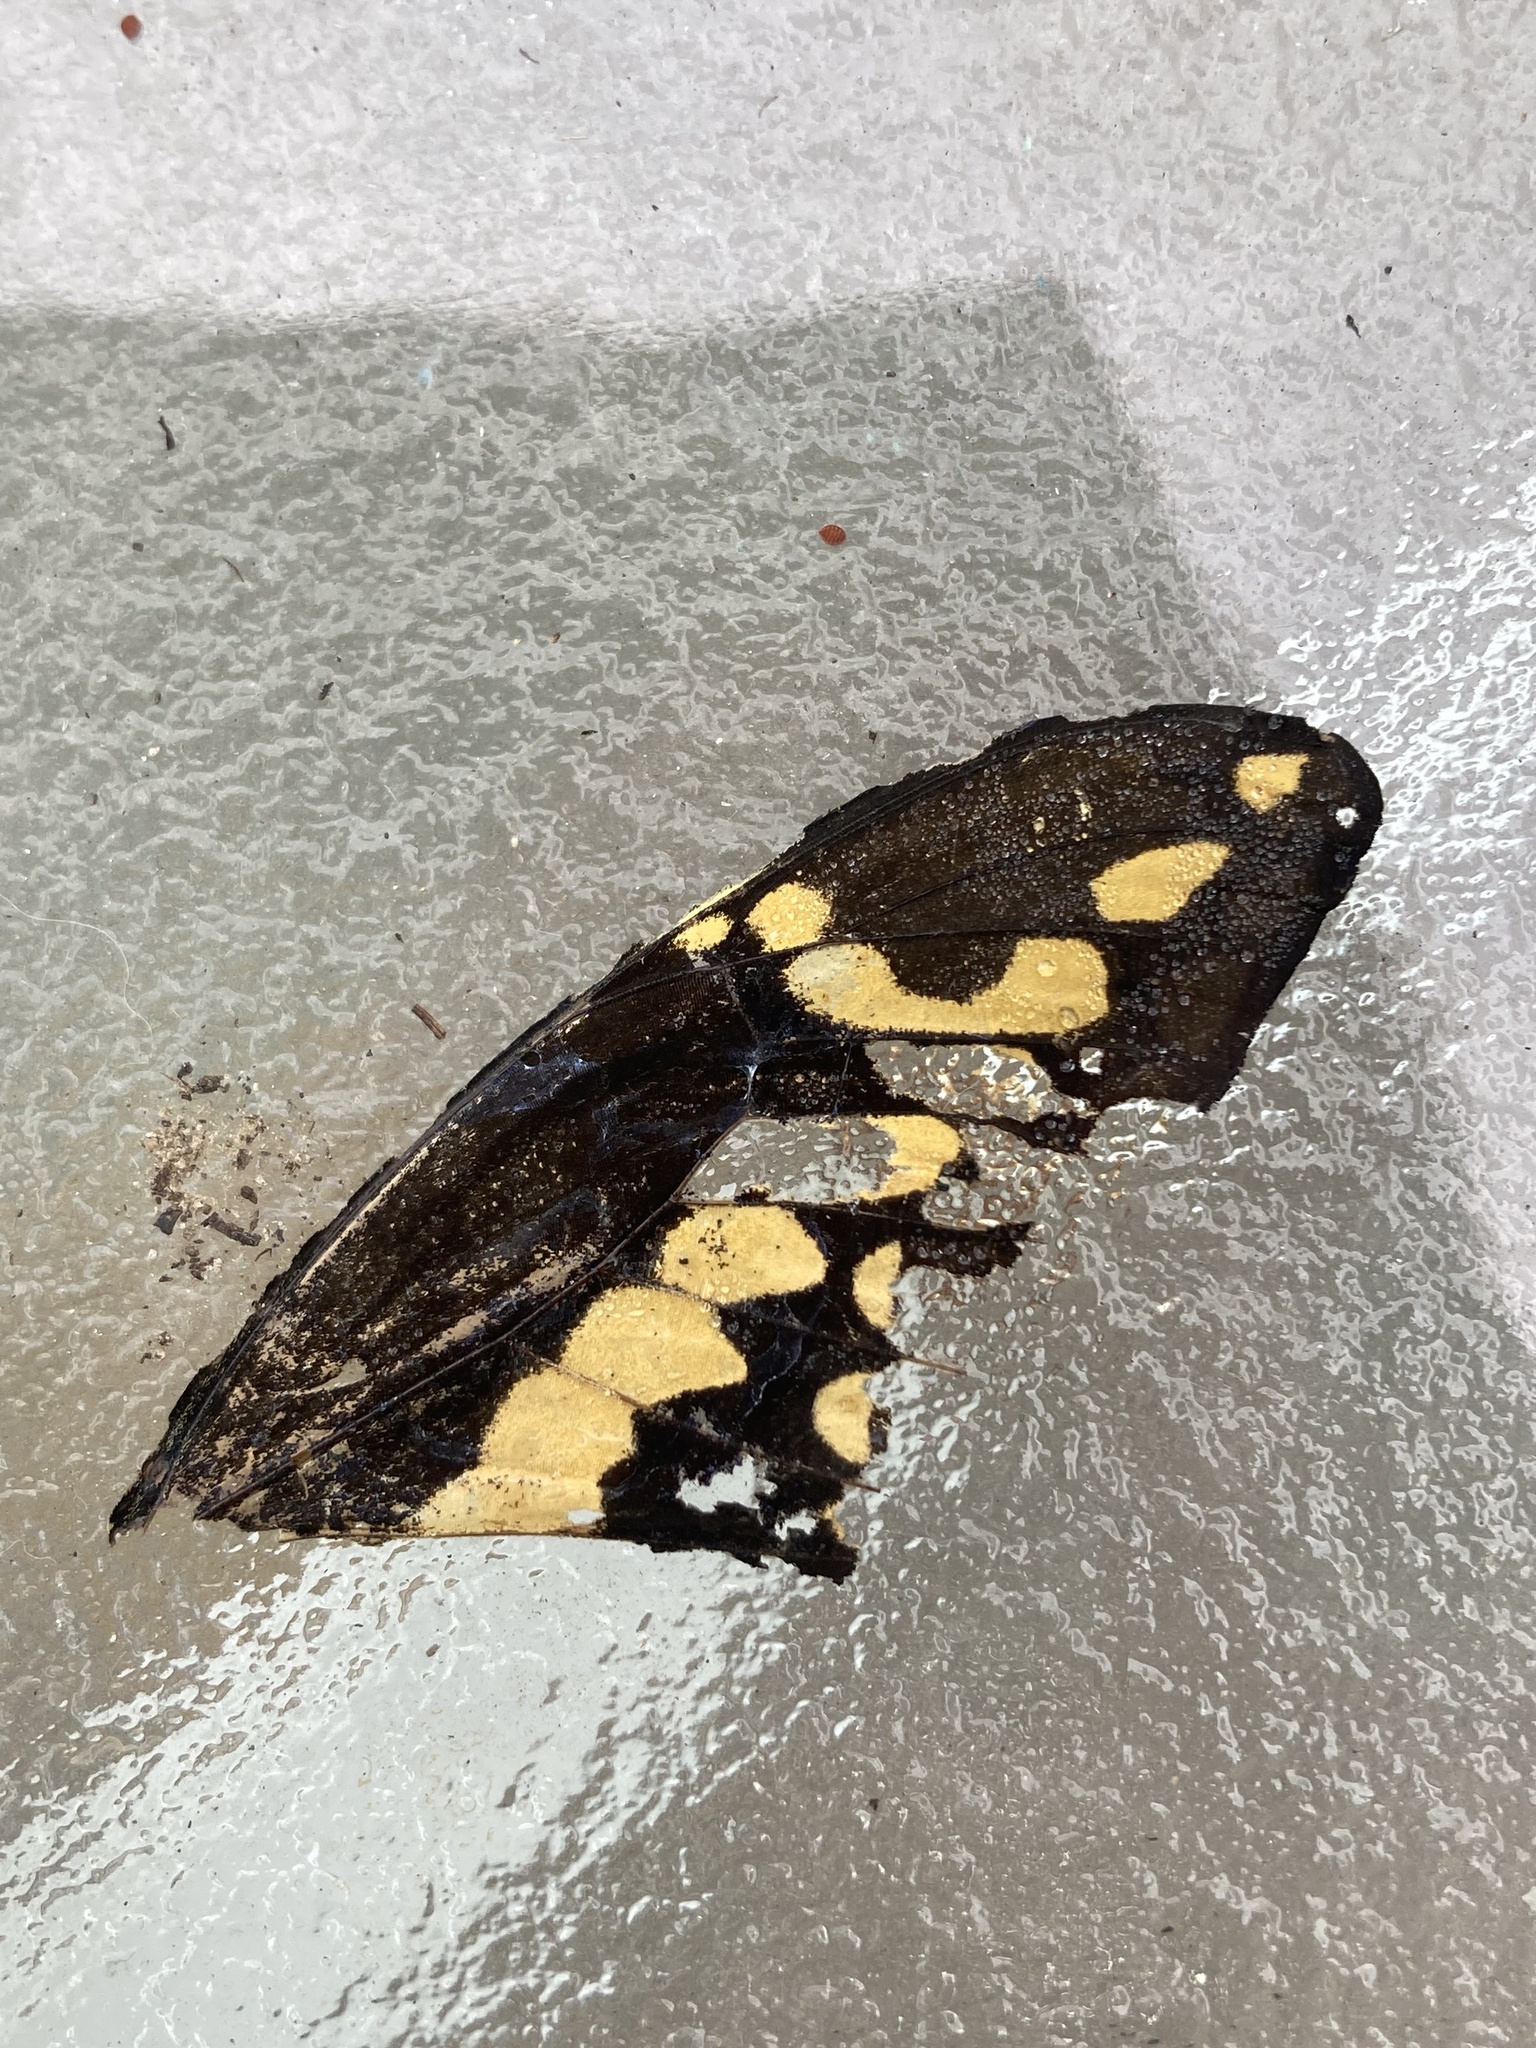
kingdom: Animalia
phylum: Arthropoda
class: Insecta
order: Lepidoptera
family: Papilionidae
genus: Papilio
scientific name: Papilio rumiko
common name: Western giant swallowtail
